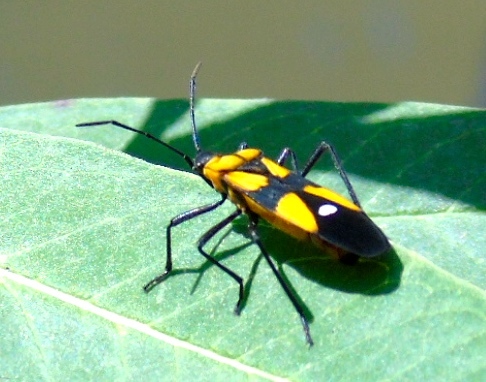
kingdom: Animalia
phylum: Arthropoda
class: Insecta
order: Hemiptera
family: Lygaeidae
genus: Oncopeltus
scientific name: Oncopeltus sexmaculatus
